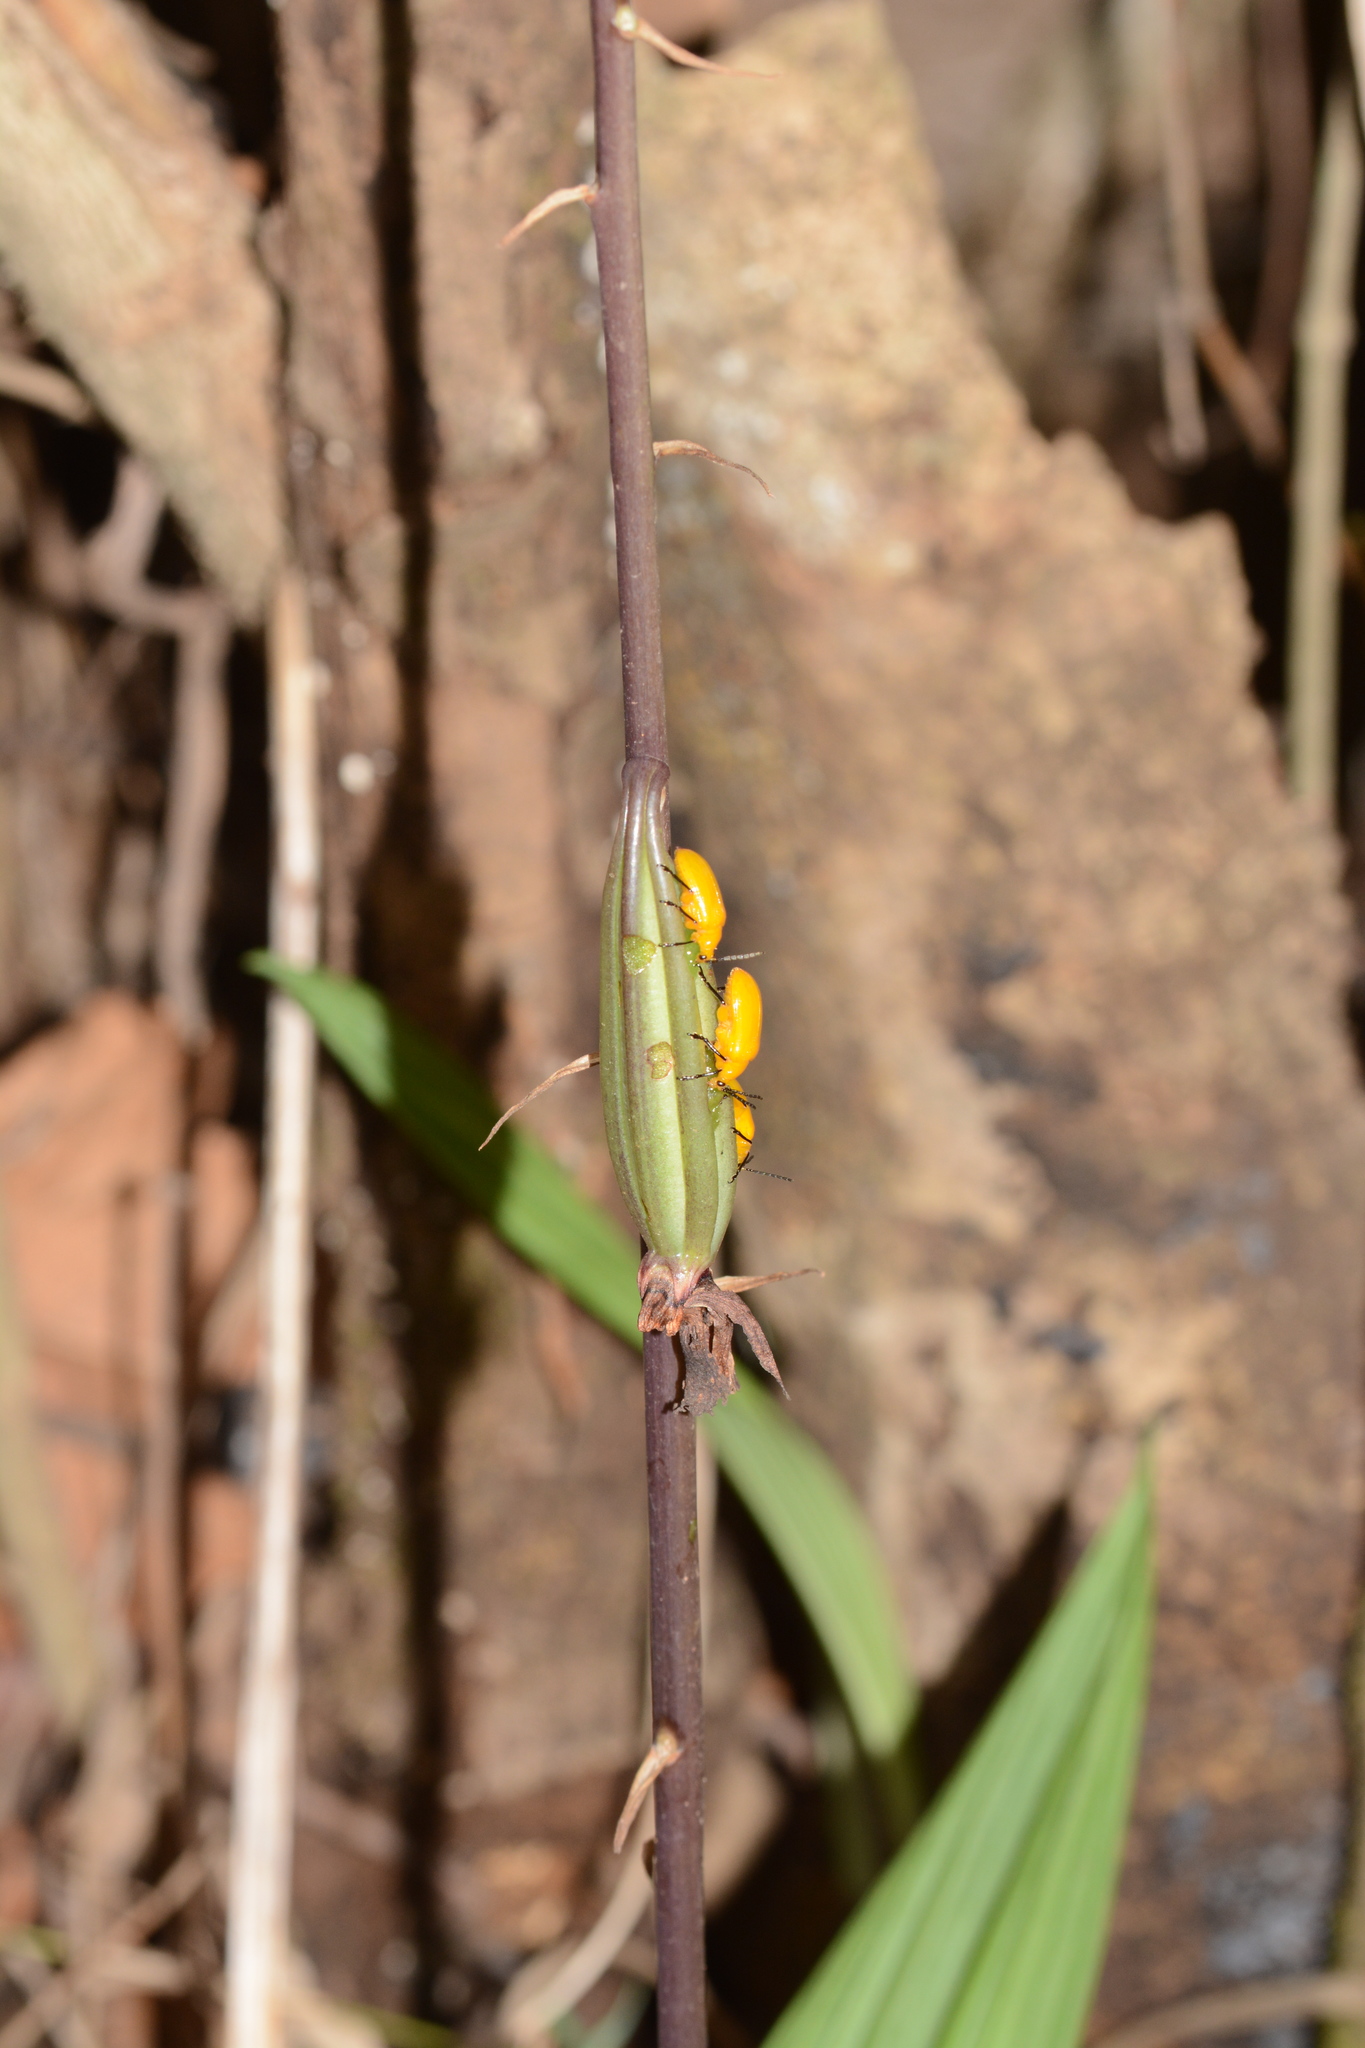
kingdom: Plantae
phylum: Tracheophyta
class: Liliopsida
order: Asparagales
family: Orchidaceae
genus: Eulophia
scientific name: Eulophia nuda
